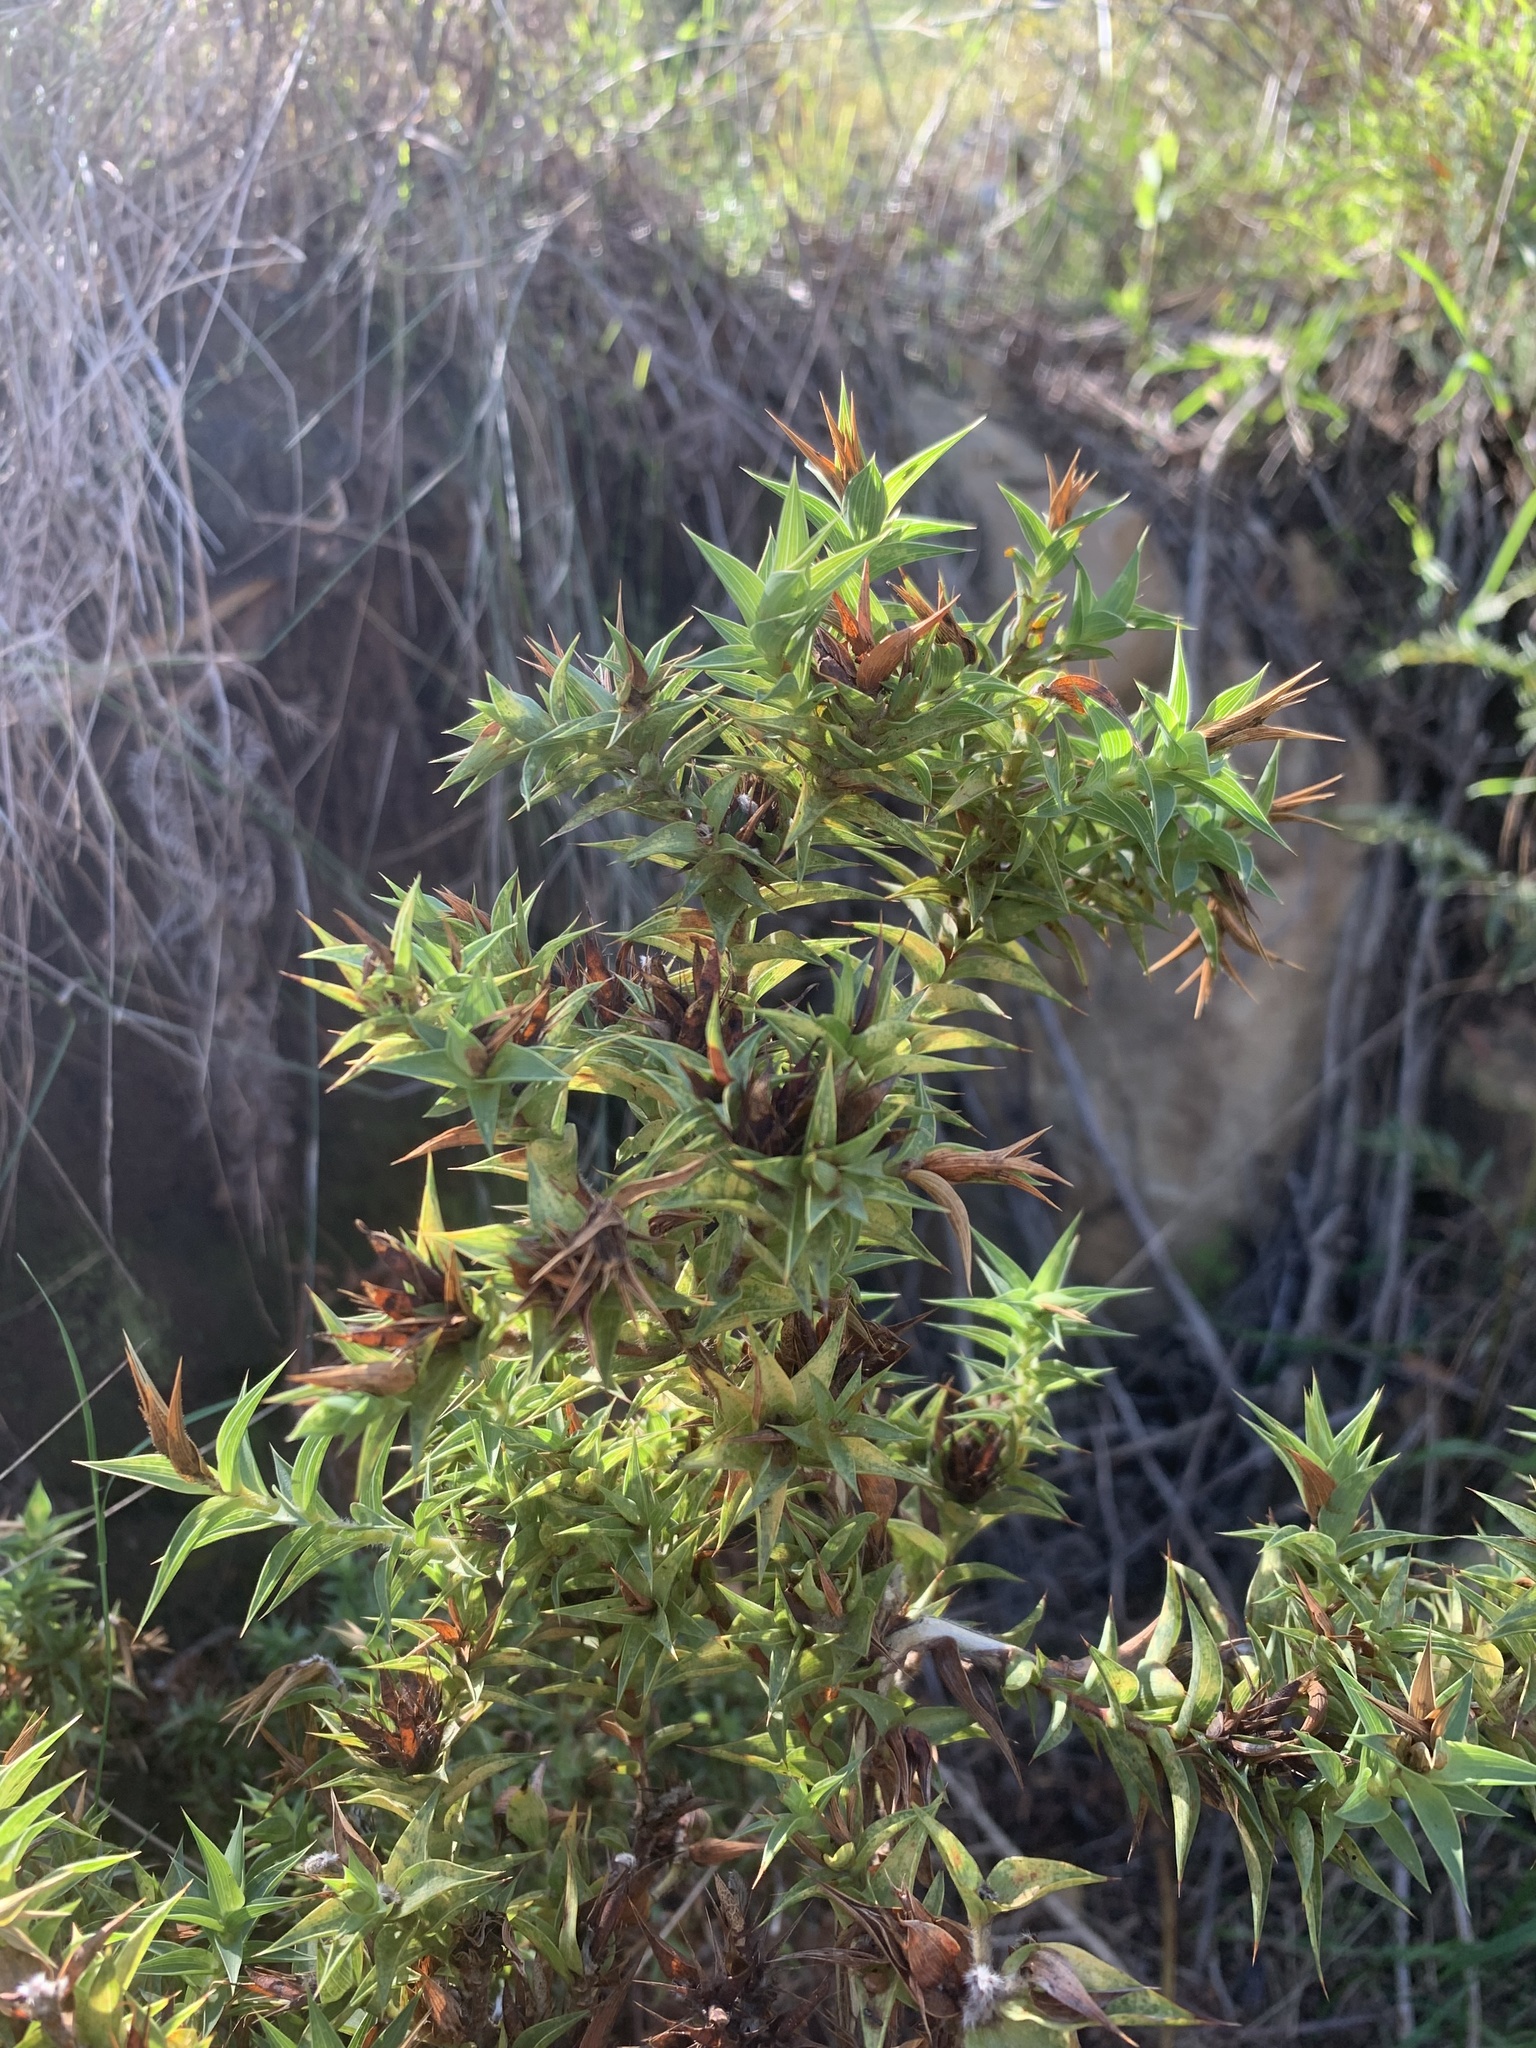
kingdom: Plantae
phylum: Tracheophyta
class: Magnoliopsida
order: Fabales
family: Fabaceae
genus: Aspalathus
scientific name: Aspalathus cordata
